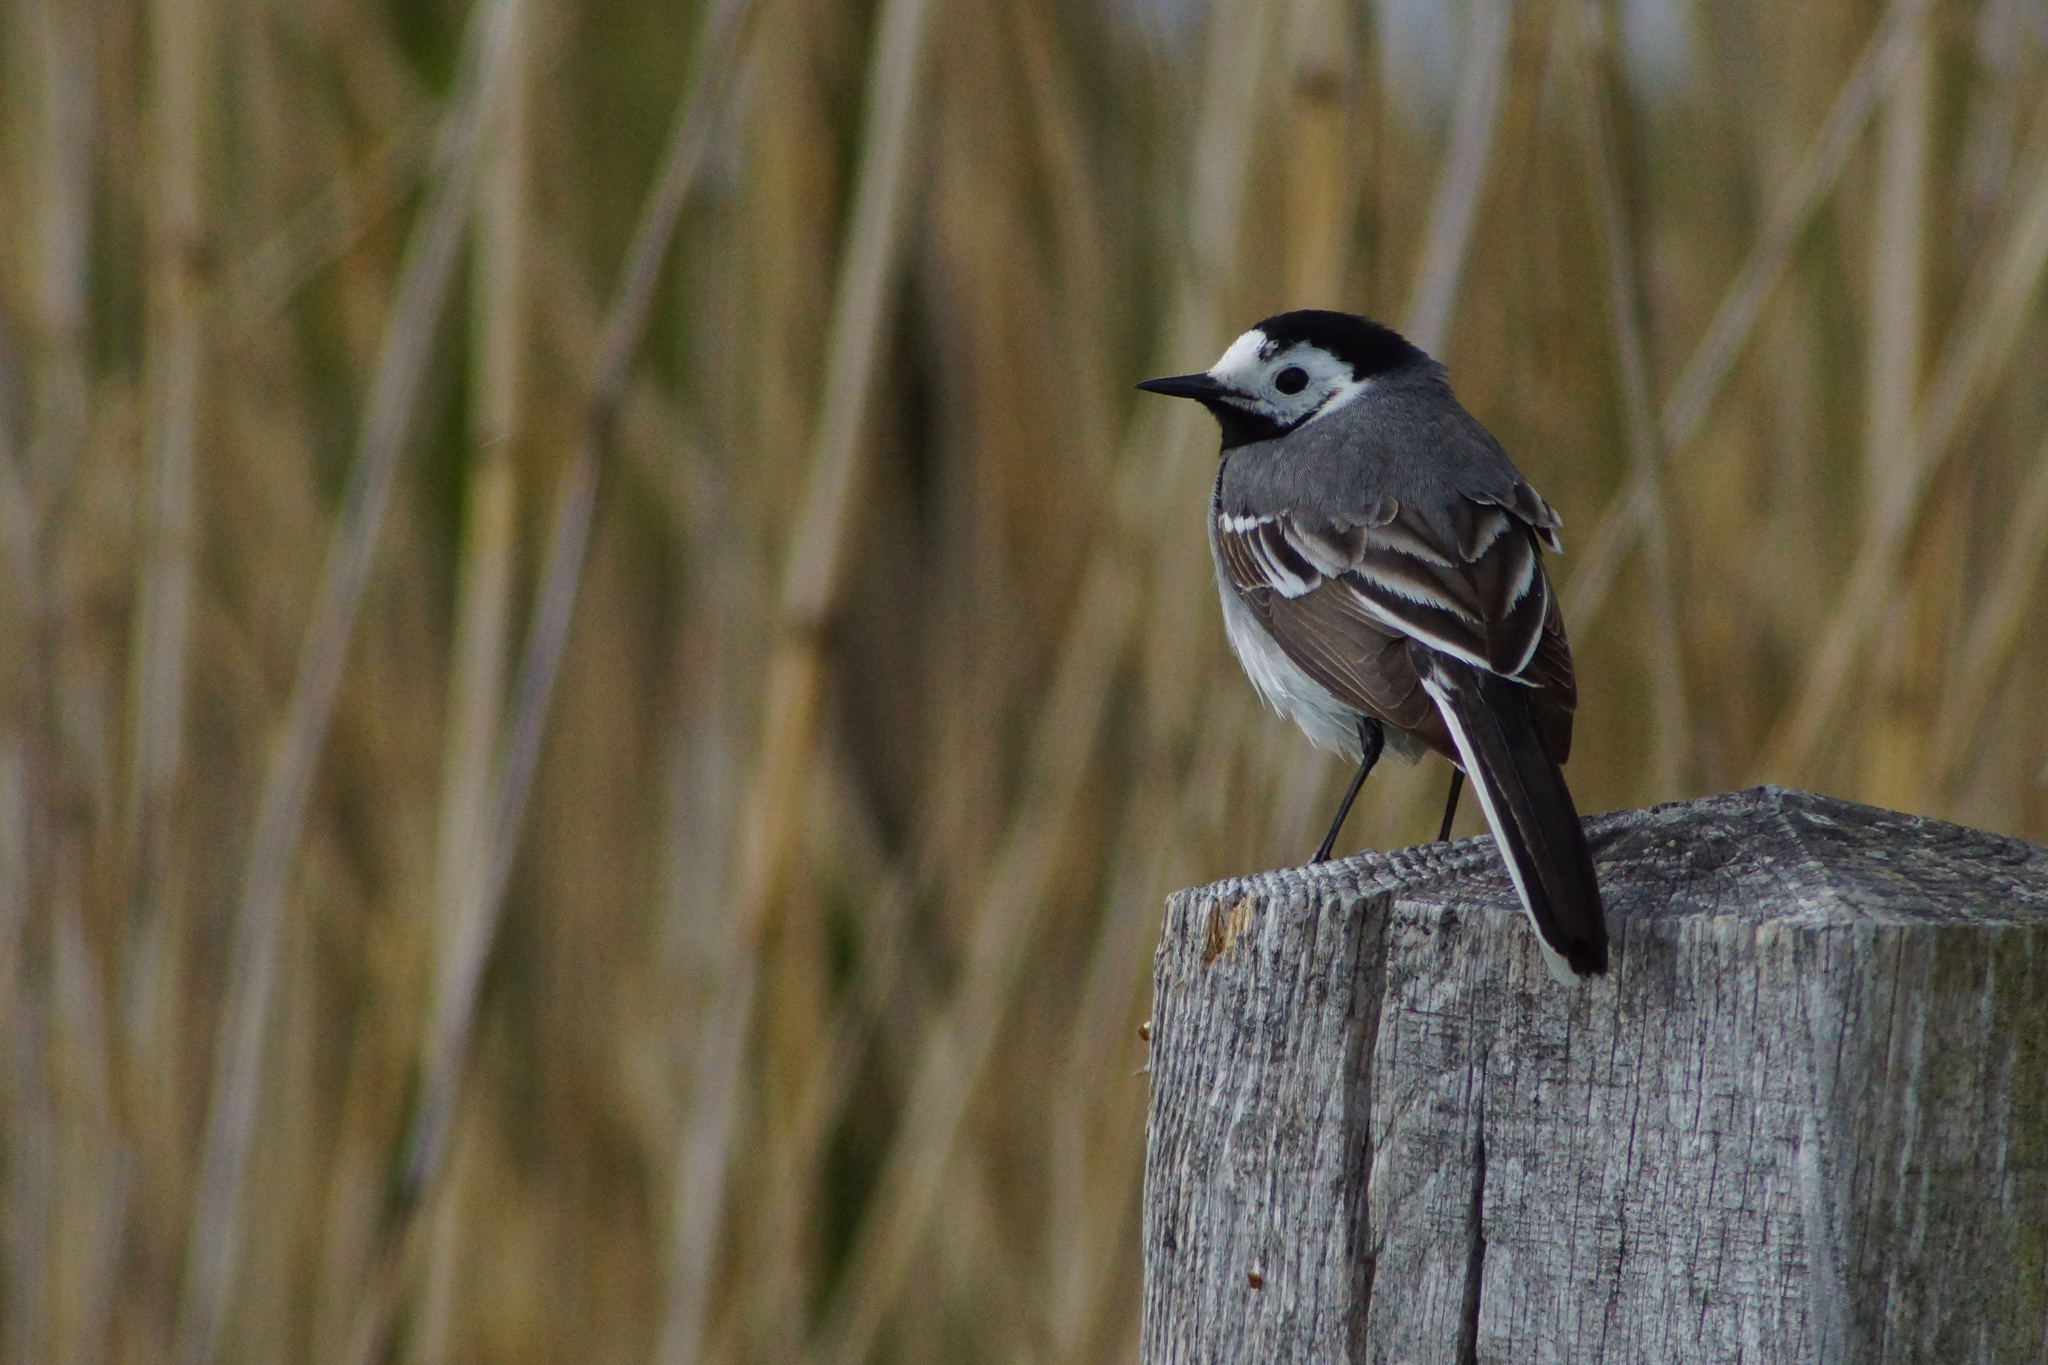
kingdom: Animalia
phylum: Chordata
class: Aves
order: Passeriformes
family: Motacillidae
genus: Motacilla
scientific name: Motacilla alba
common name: White wagtail
